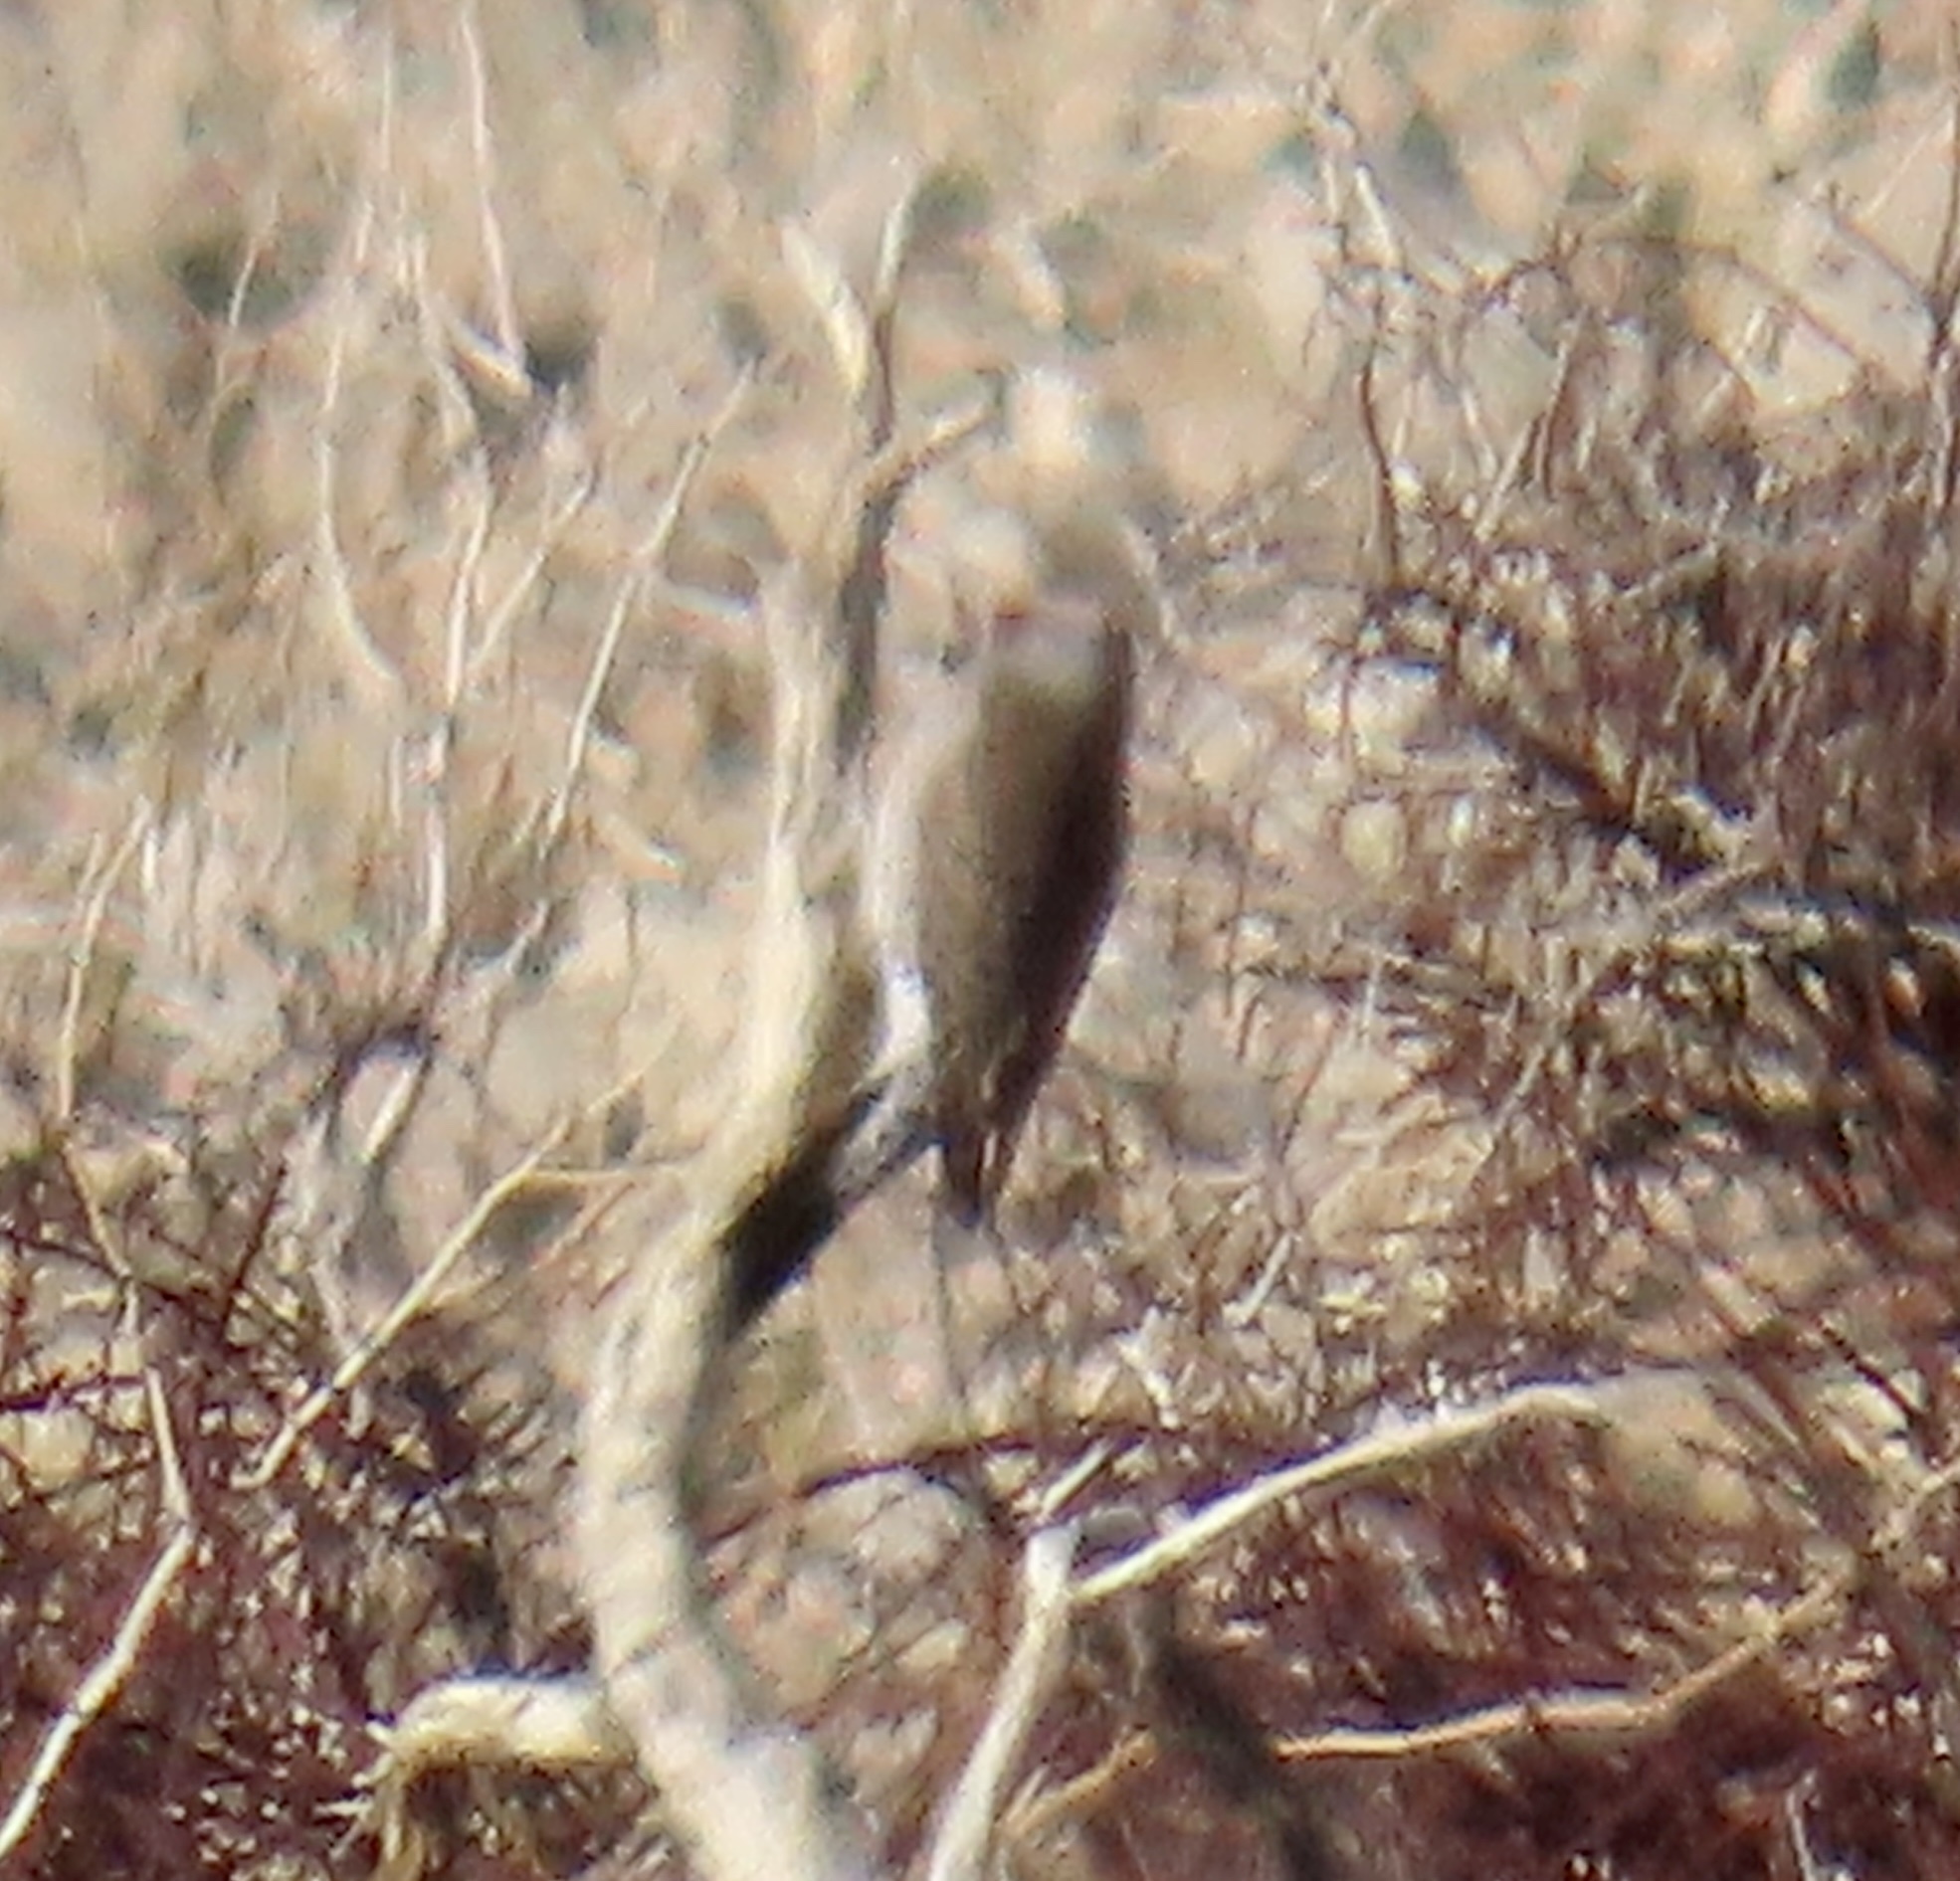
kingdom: Animalia
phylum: Chordata
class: Aves
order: Piciformes
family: Picidae
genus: Colaptes
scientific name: Colaptes auratus
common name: Northern flicker
